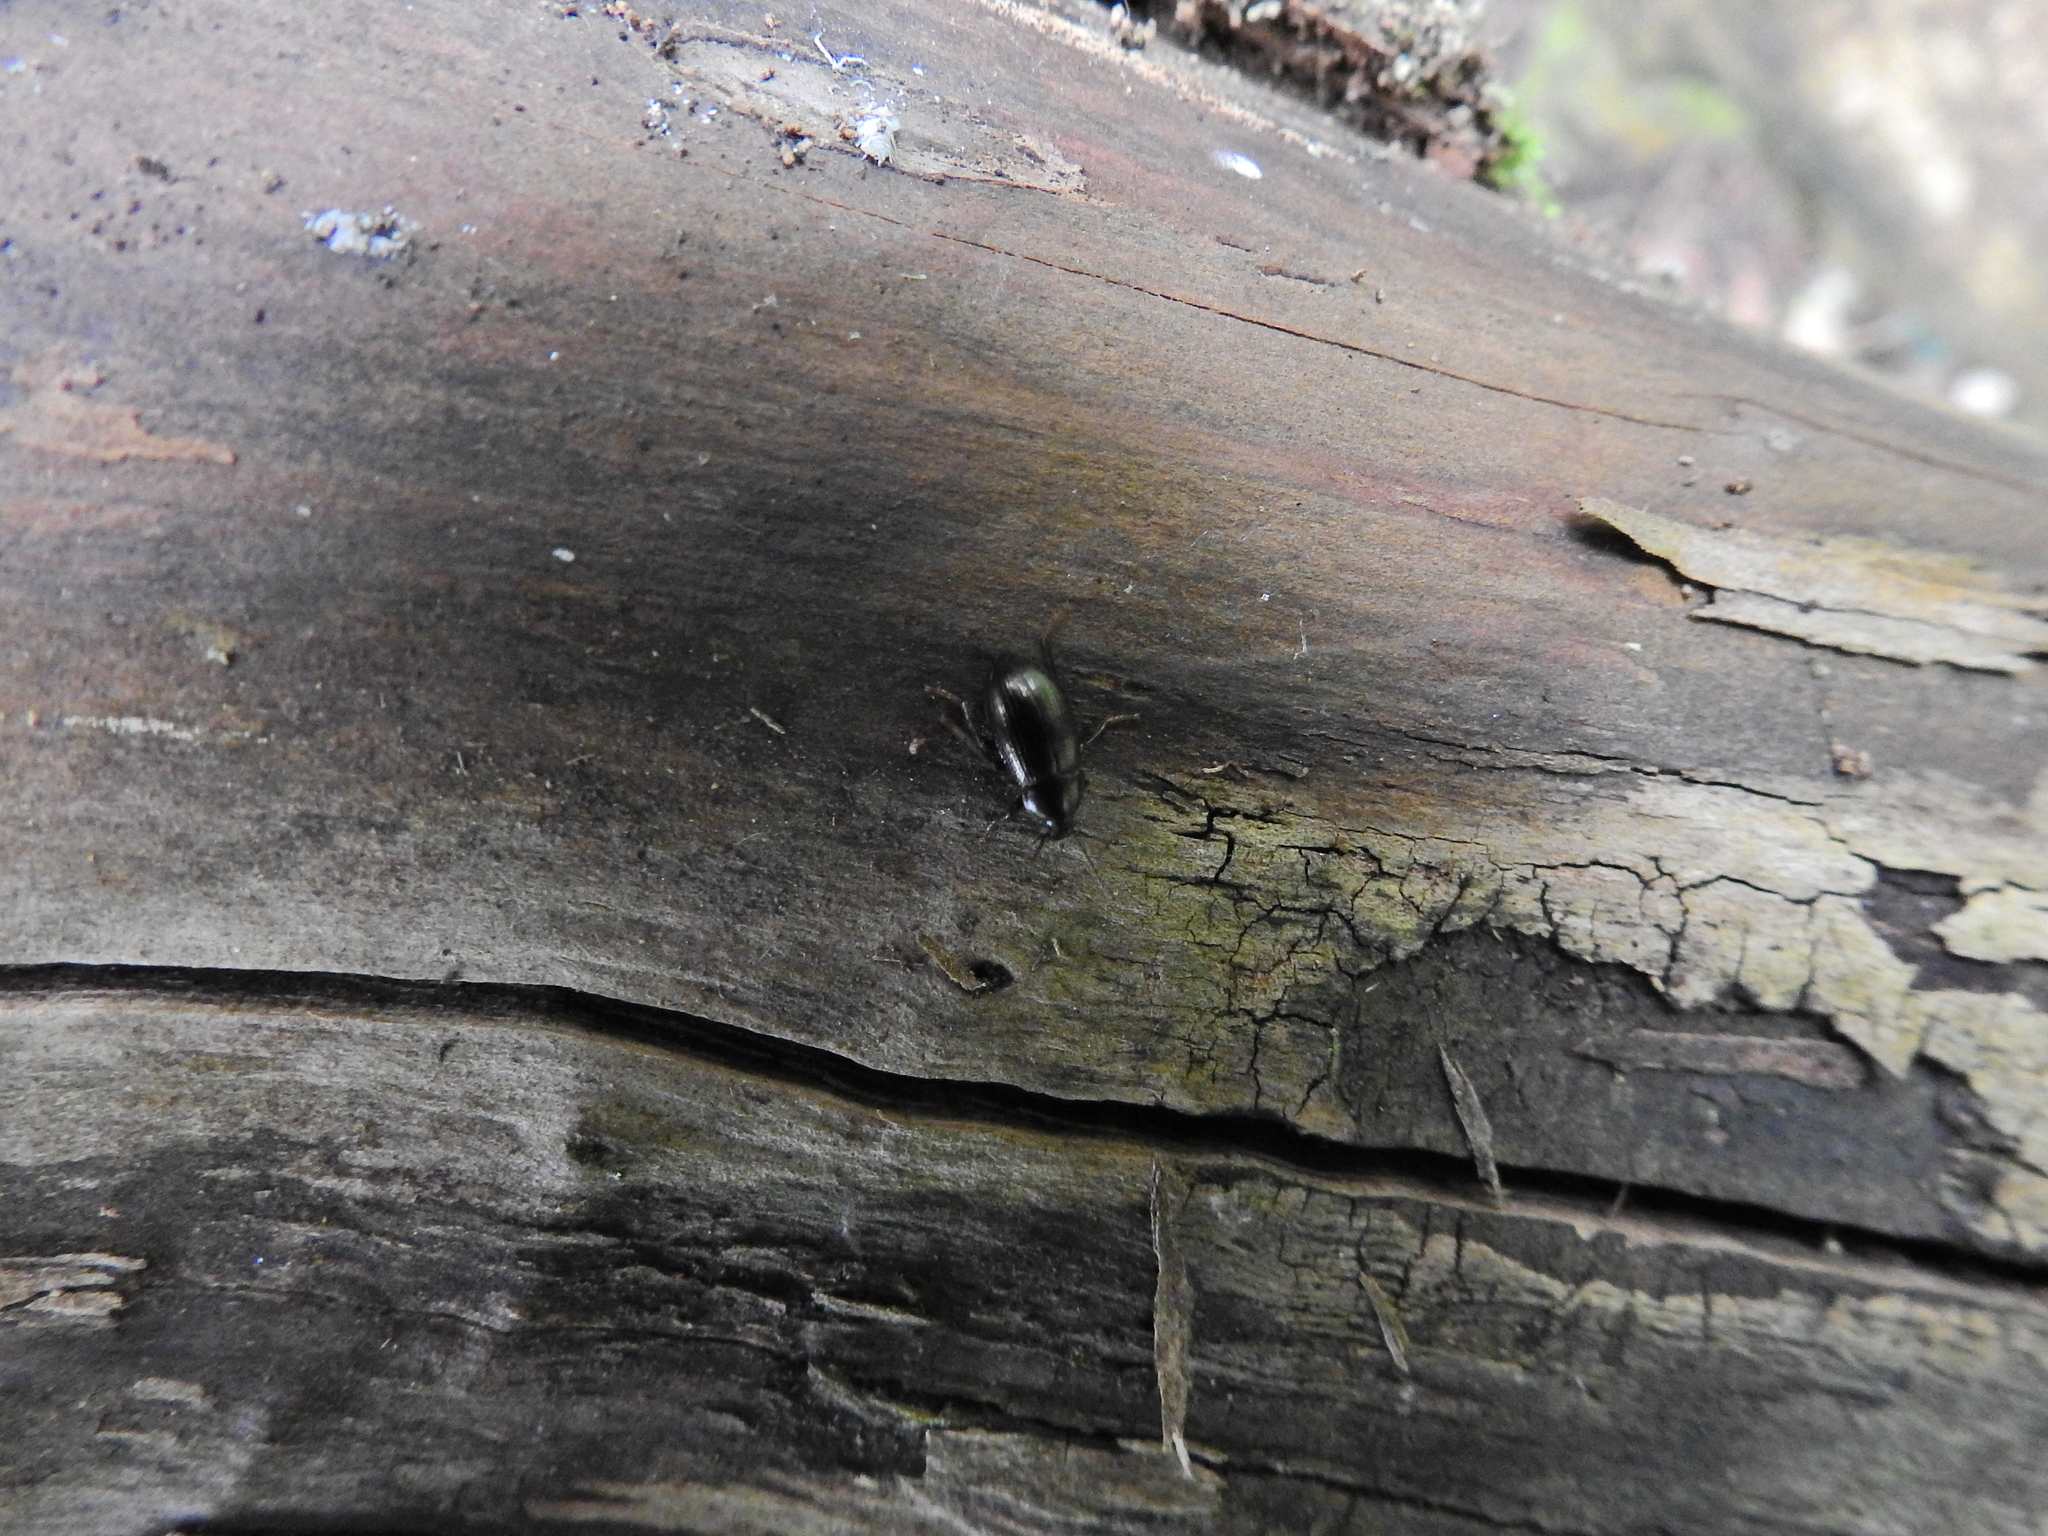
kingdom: Animalia
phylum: Arthropoda
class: Insecta
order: Coleoptera
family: Tenebrionidae
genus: Nalassus
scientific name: Nalassus laevioctostriatus
